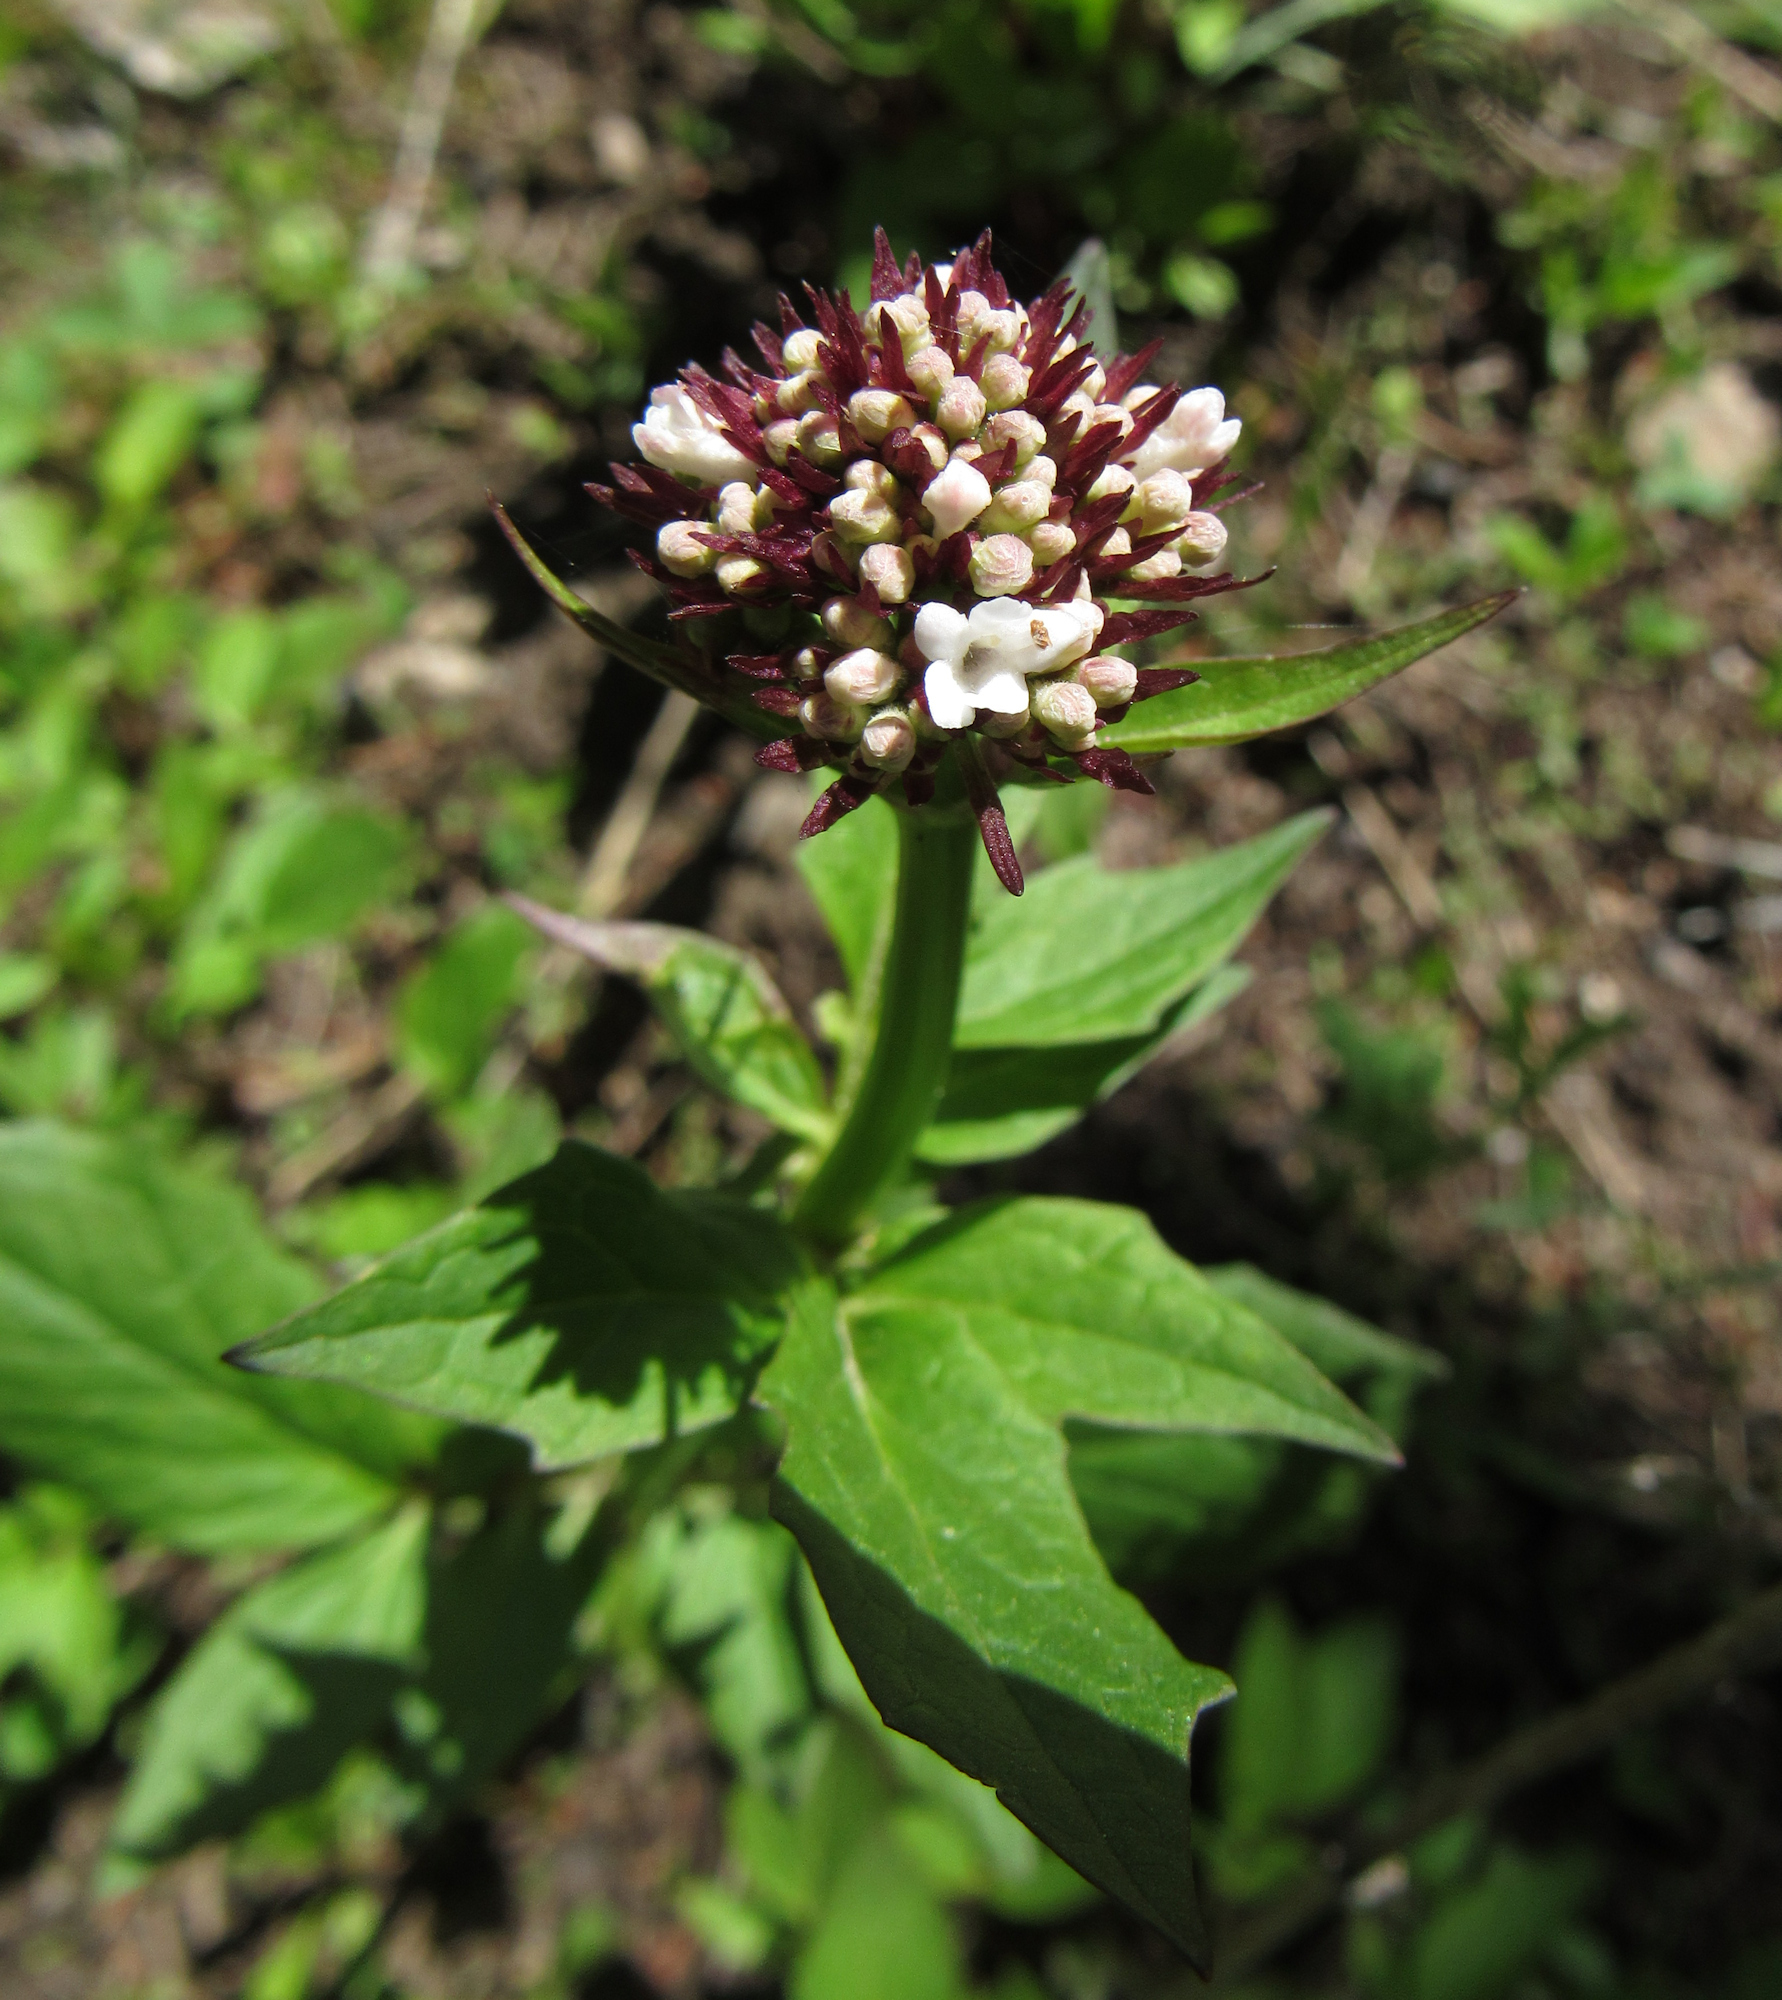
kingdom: Plantae
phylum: Tracheophyta
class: Magnoliopsida
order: Dipsacales
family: Caprifoliaceae
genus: Valeriana
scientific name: Valeriana sitchensis
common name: Pacific valerian
